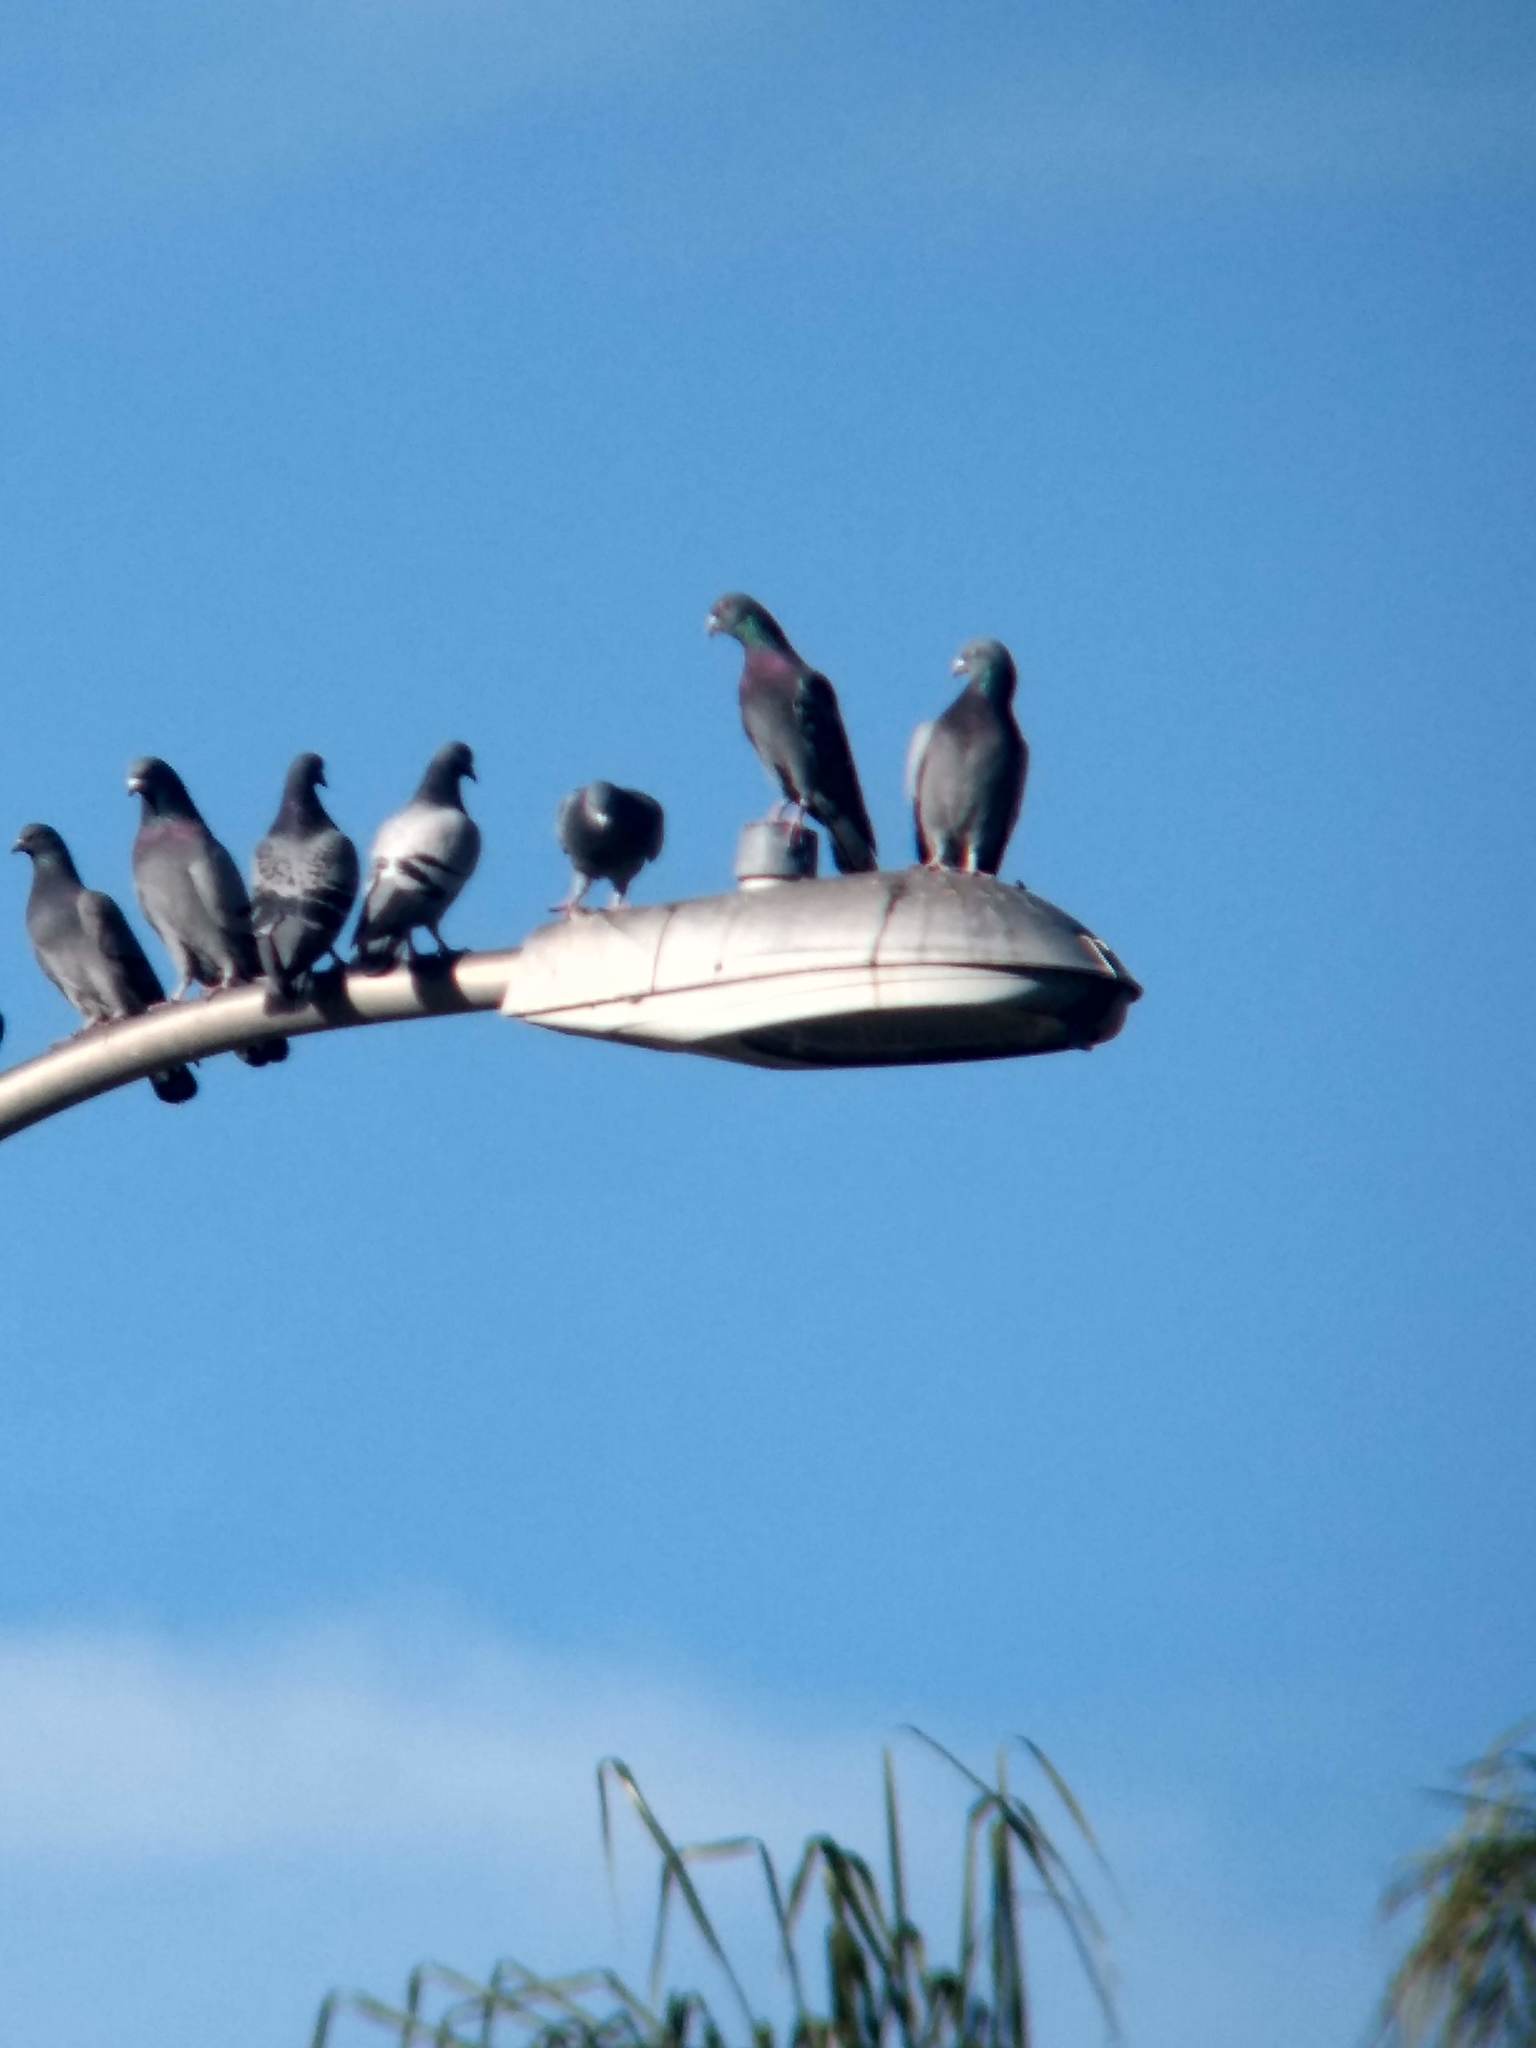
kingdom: Animalia
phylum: Chordata
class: Aves
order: Columbiformes
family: Columbidae
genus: Columba
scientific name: Columba livia
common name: Rock pigeon
